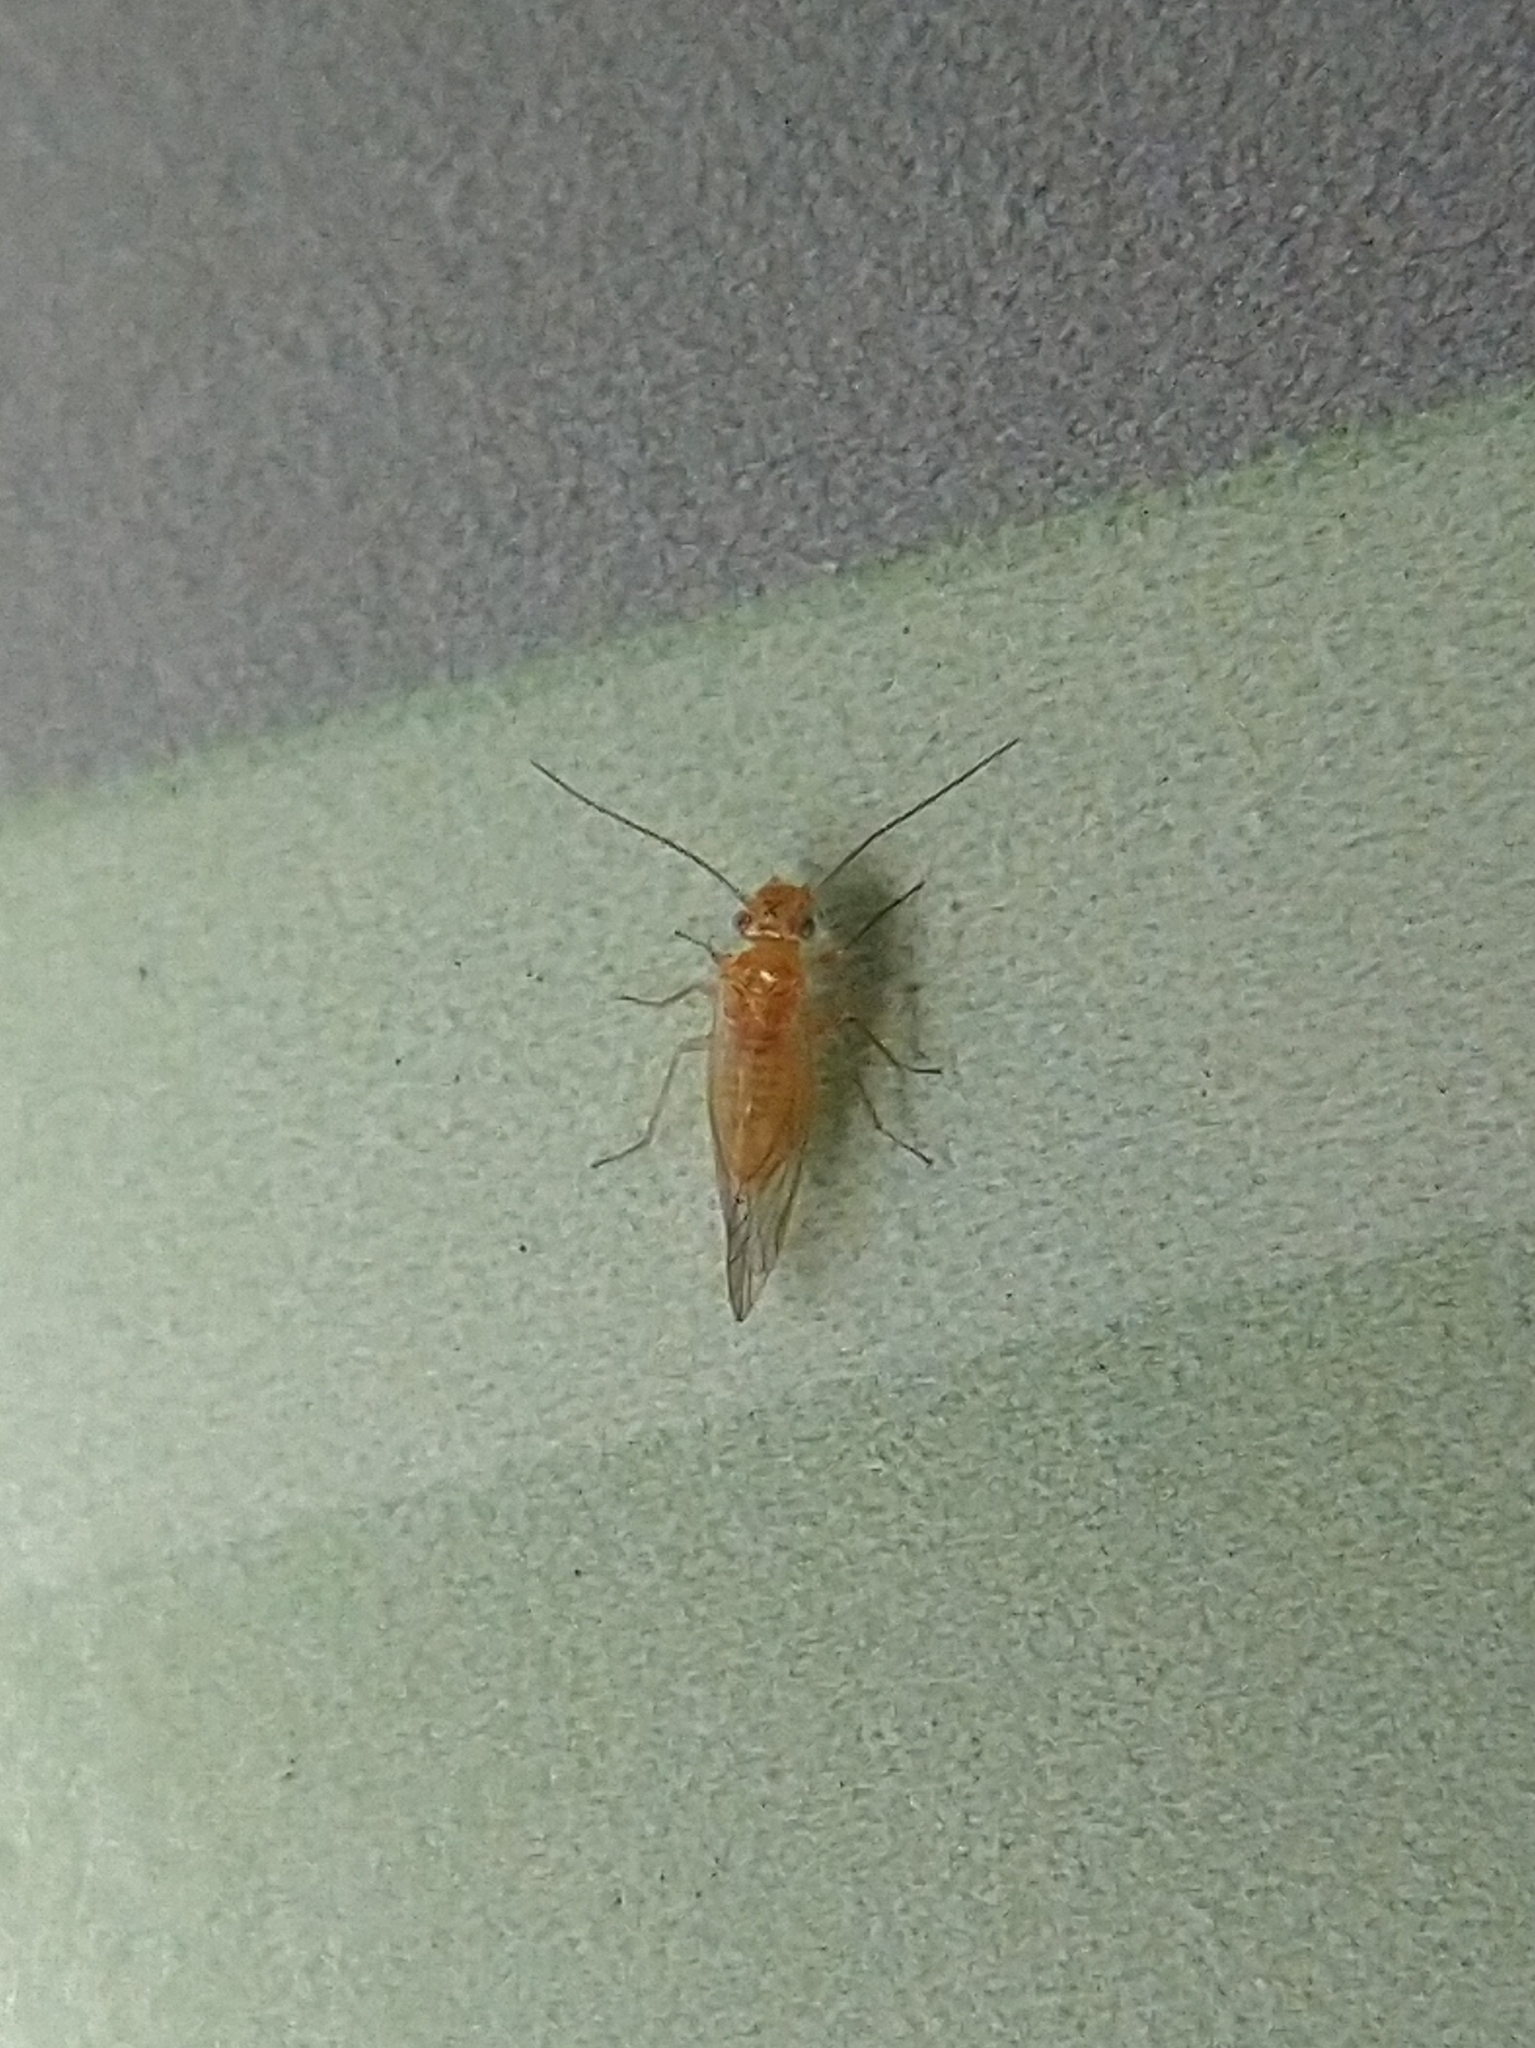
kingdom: Animalia
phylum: Arthropoda
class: Insecta
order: Psocodea
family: Elipsocidae
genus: Cuneopalpus
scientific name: Cuneopalpus cyanops
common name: Booklice
